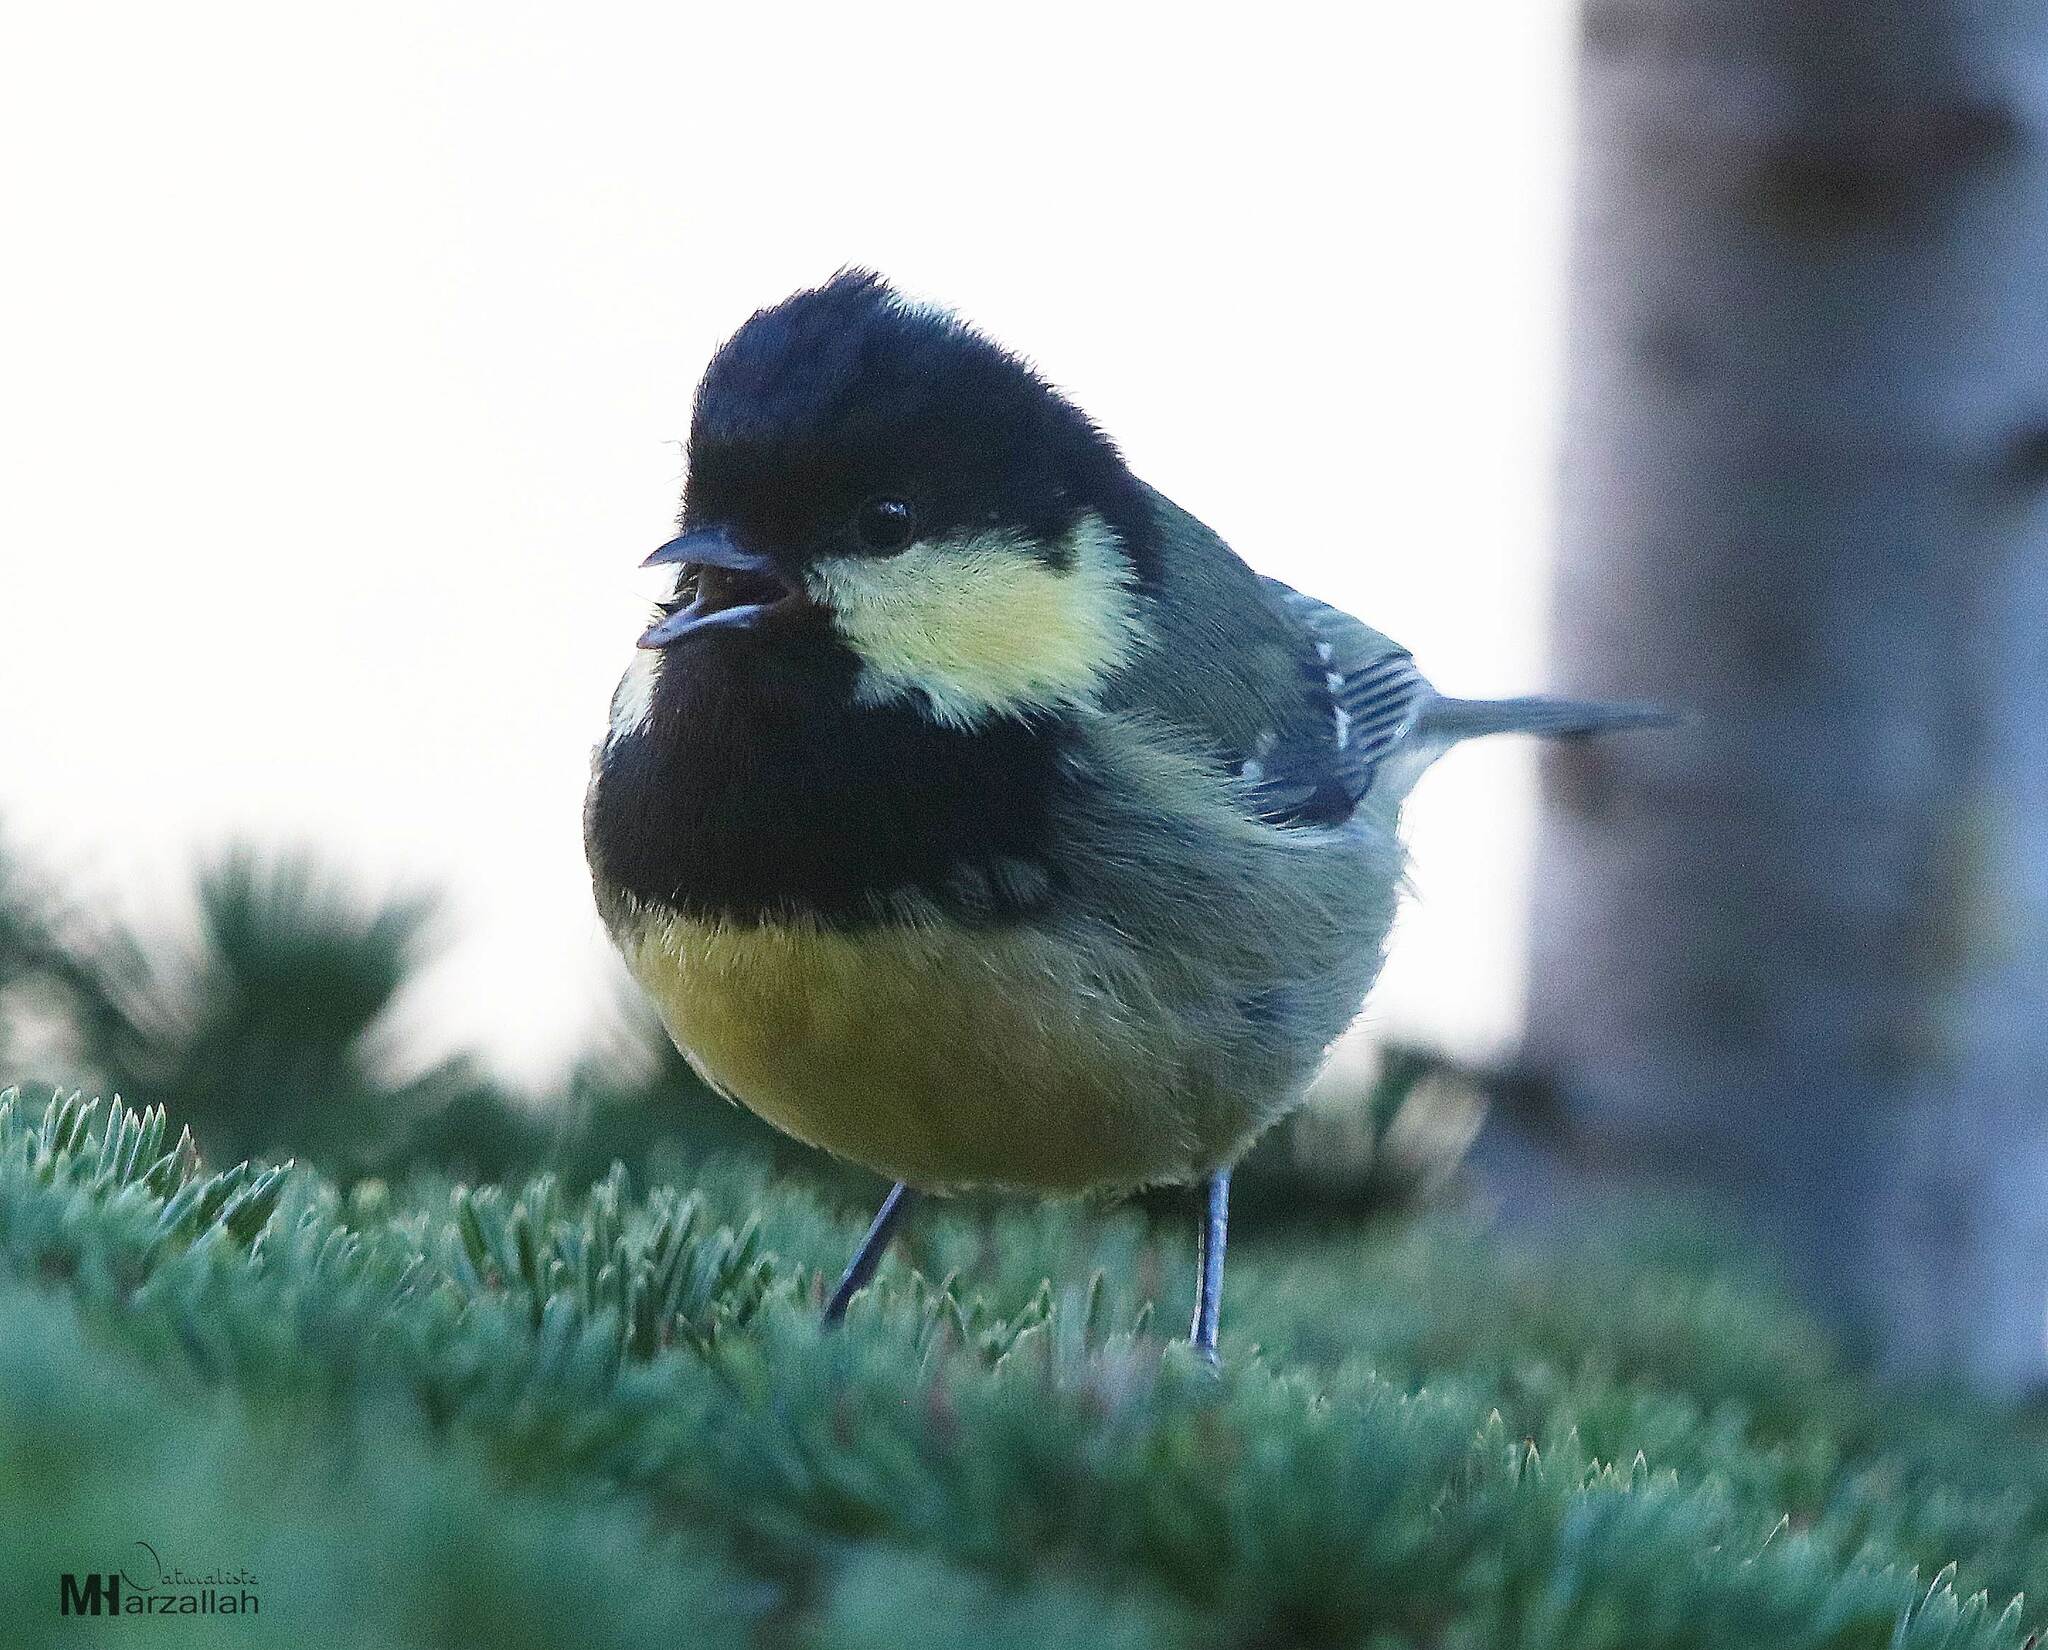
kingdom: Animalia
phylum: Chordata
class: Aves
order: Passeriformes
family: Paridae
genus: Periparus
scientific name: Periparus ater
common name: Coal tit
